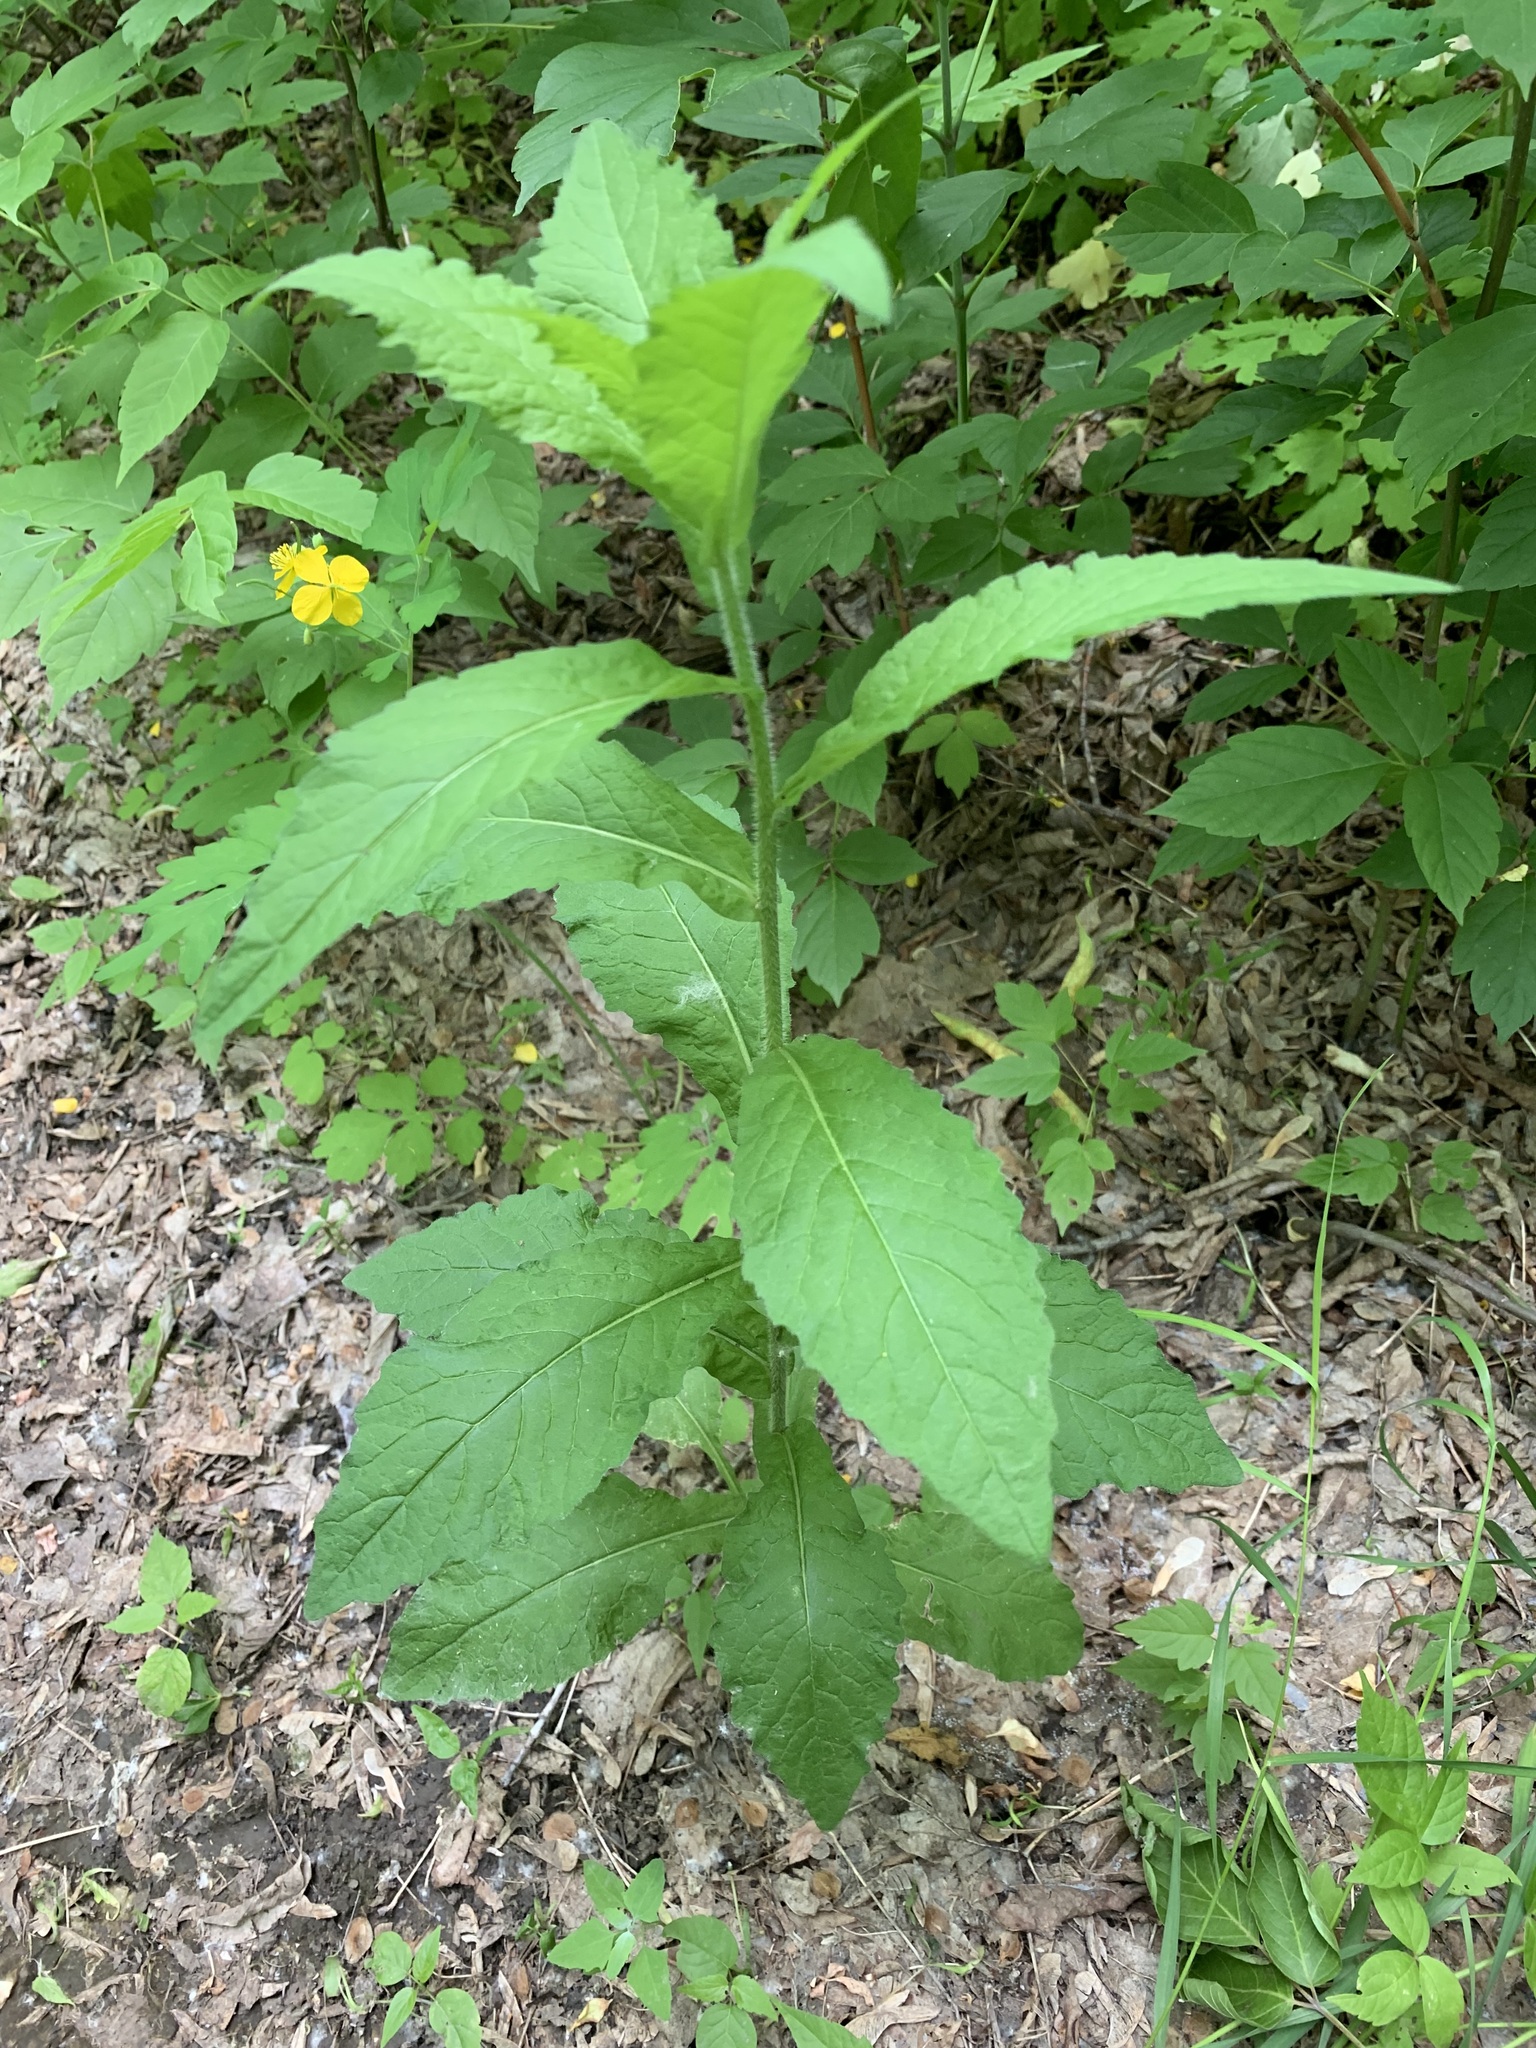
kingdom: Plantae
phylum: Tracheophyta
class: Magnoliopsida
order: Brassicales
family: Brassicaceae
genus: Catolobus
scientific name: Catolobus pendulus
